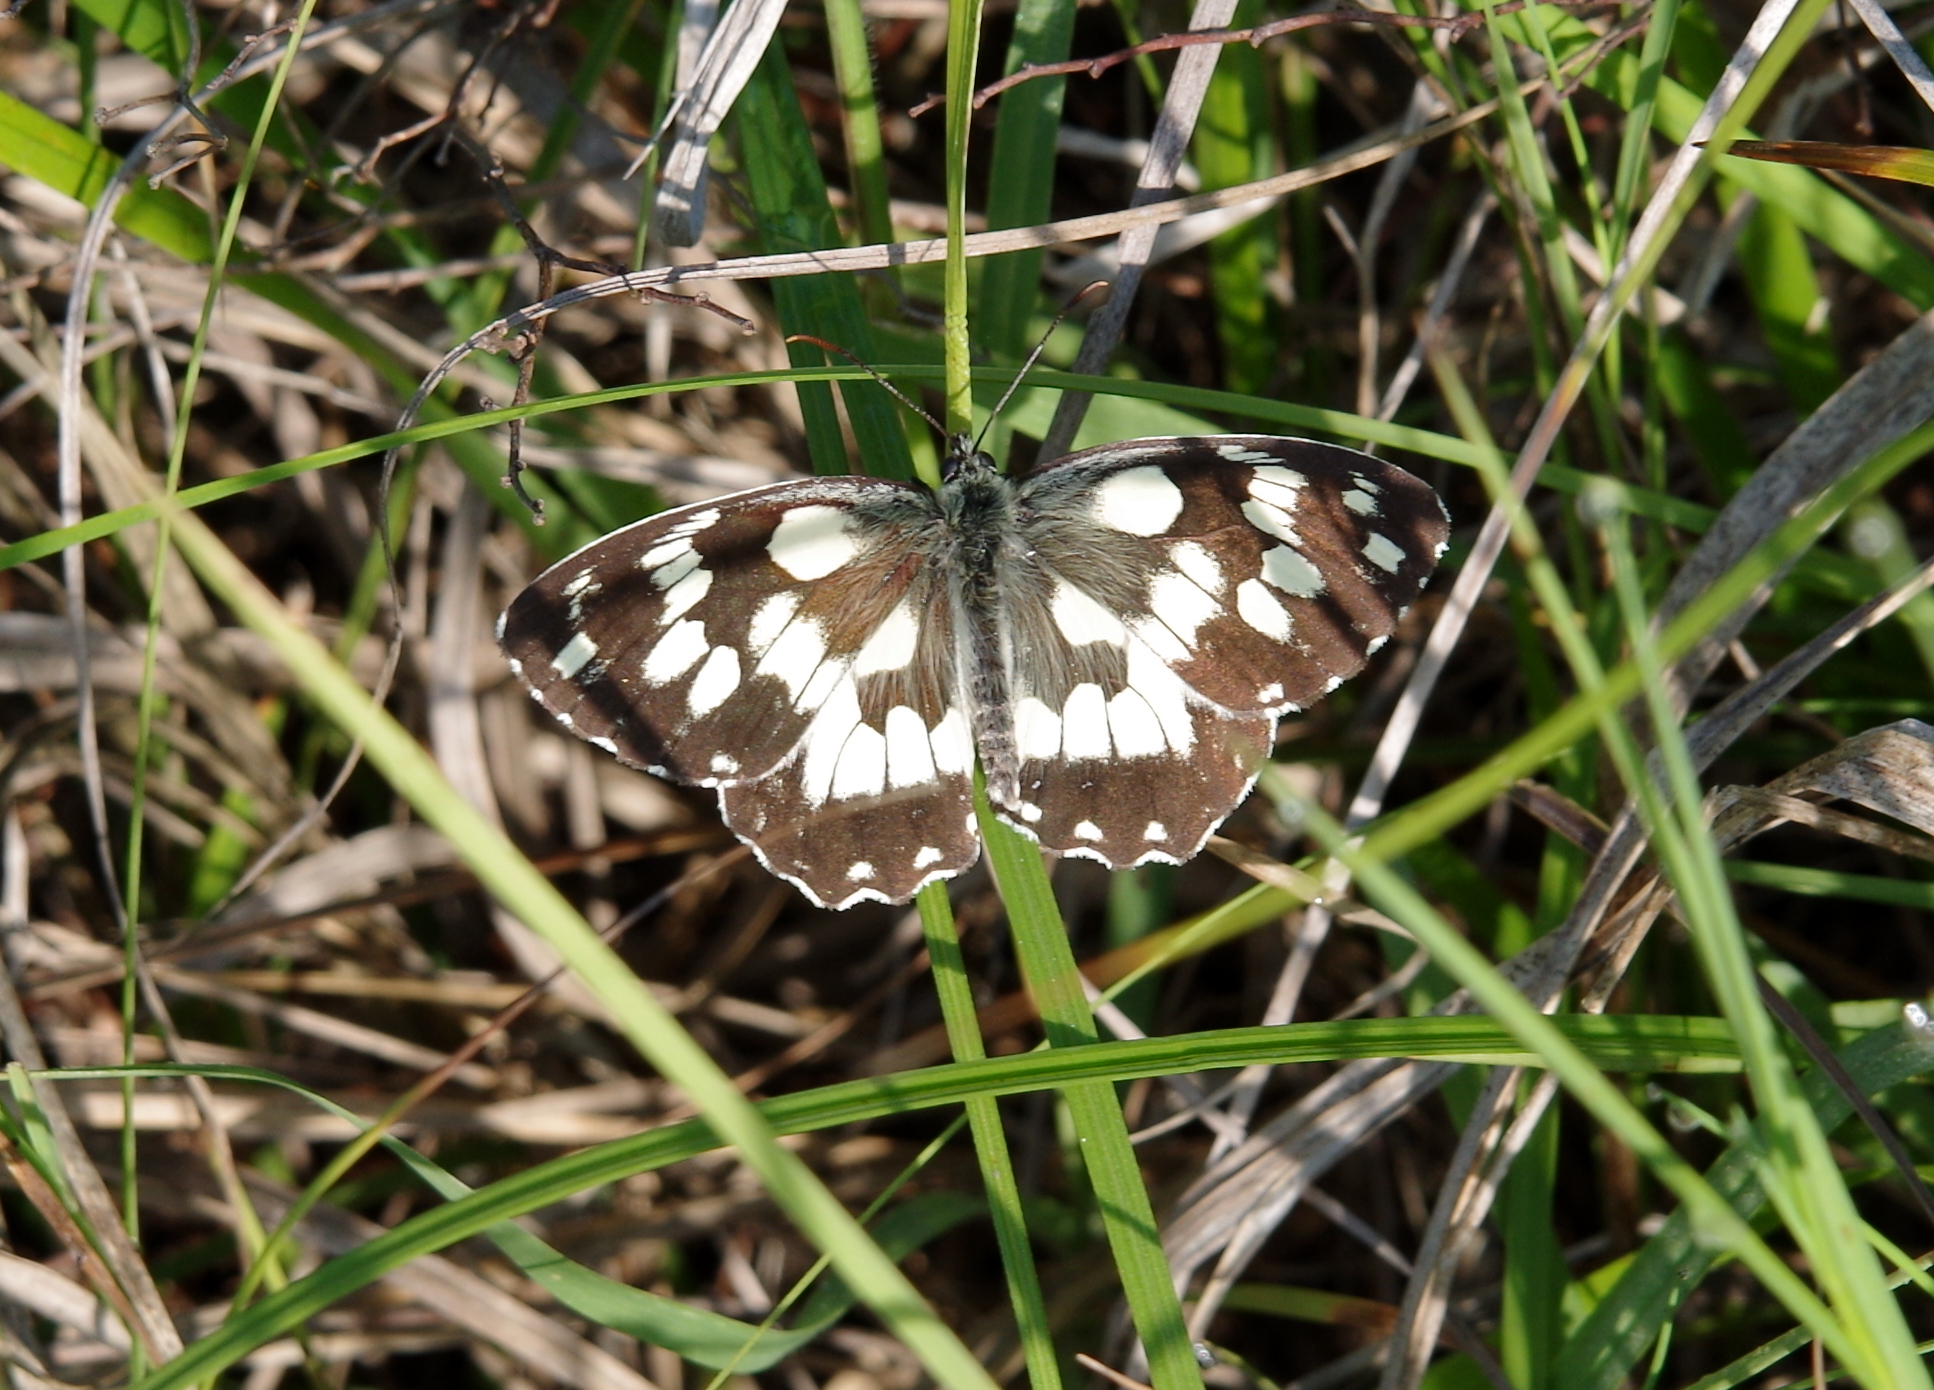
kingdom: Animalia
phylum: Arthropoda
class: Insecta
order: Lepidoptera
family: Nymphalidae
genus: Melanargia
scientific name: Melanargia galathea
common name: Marbled white
